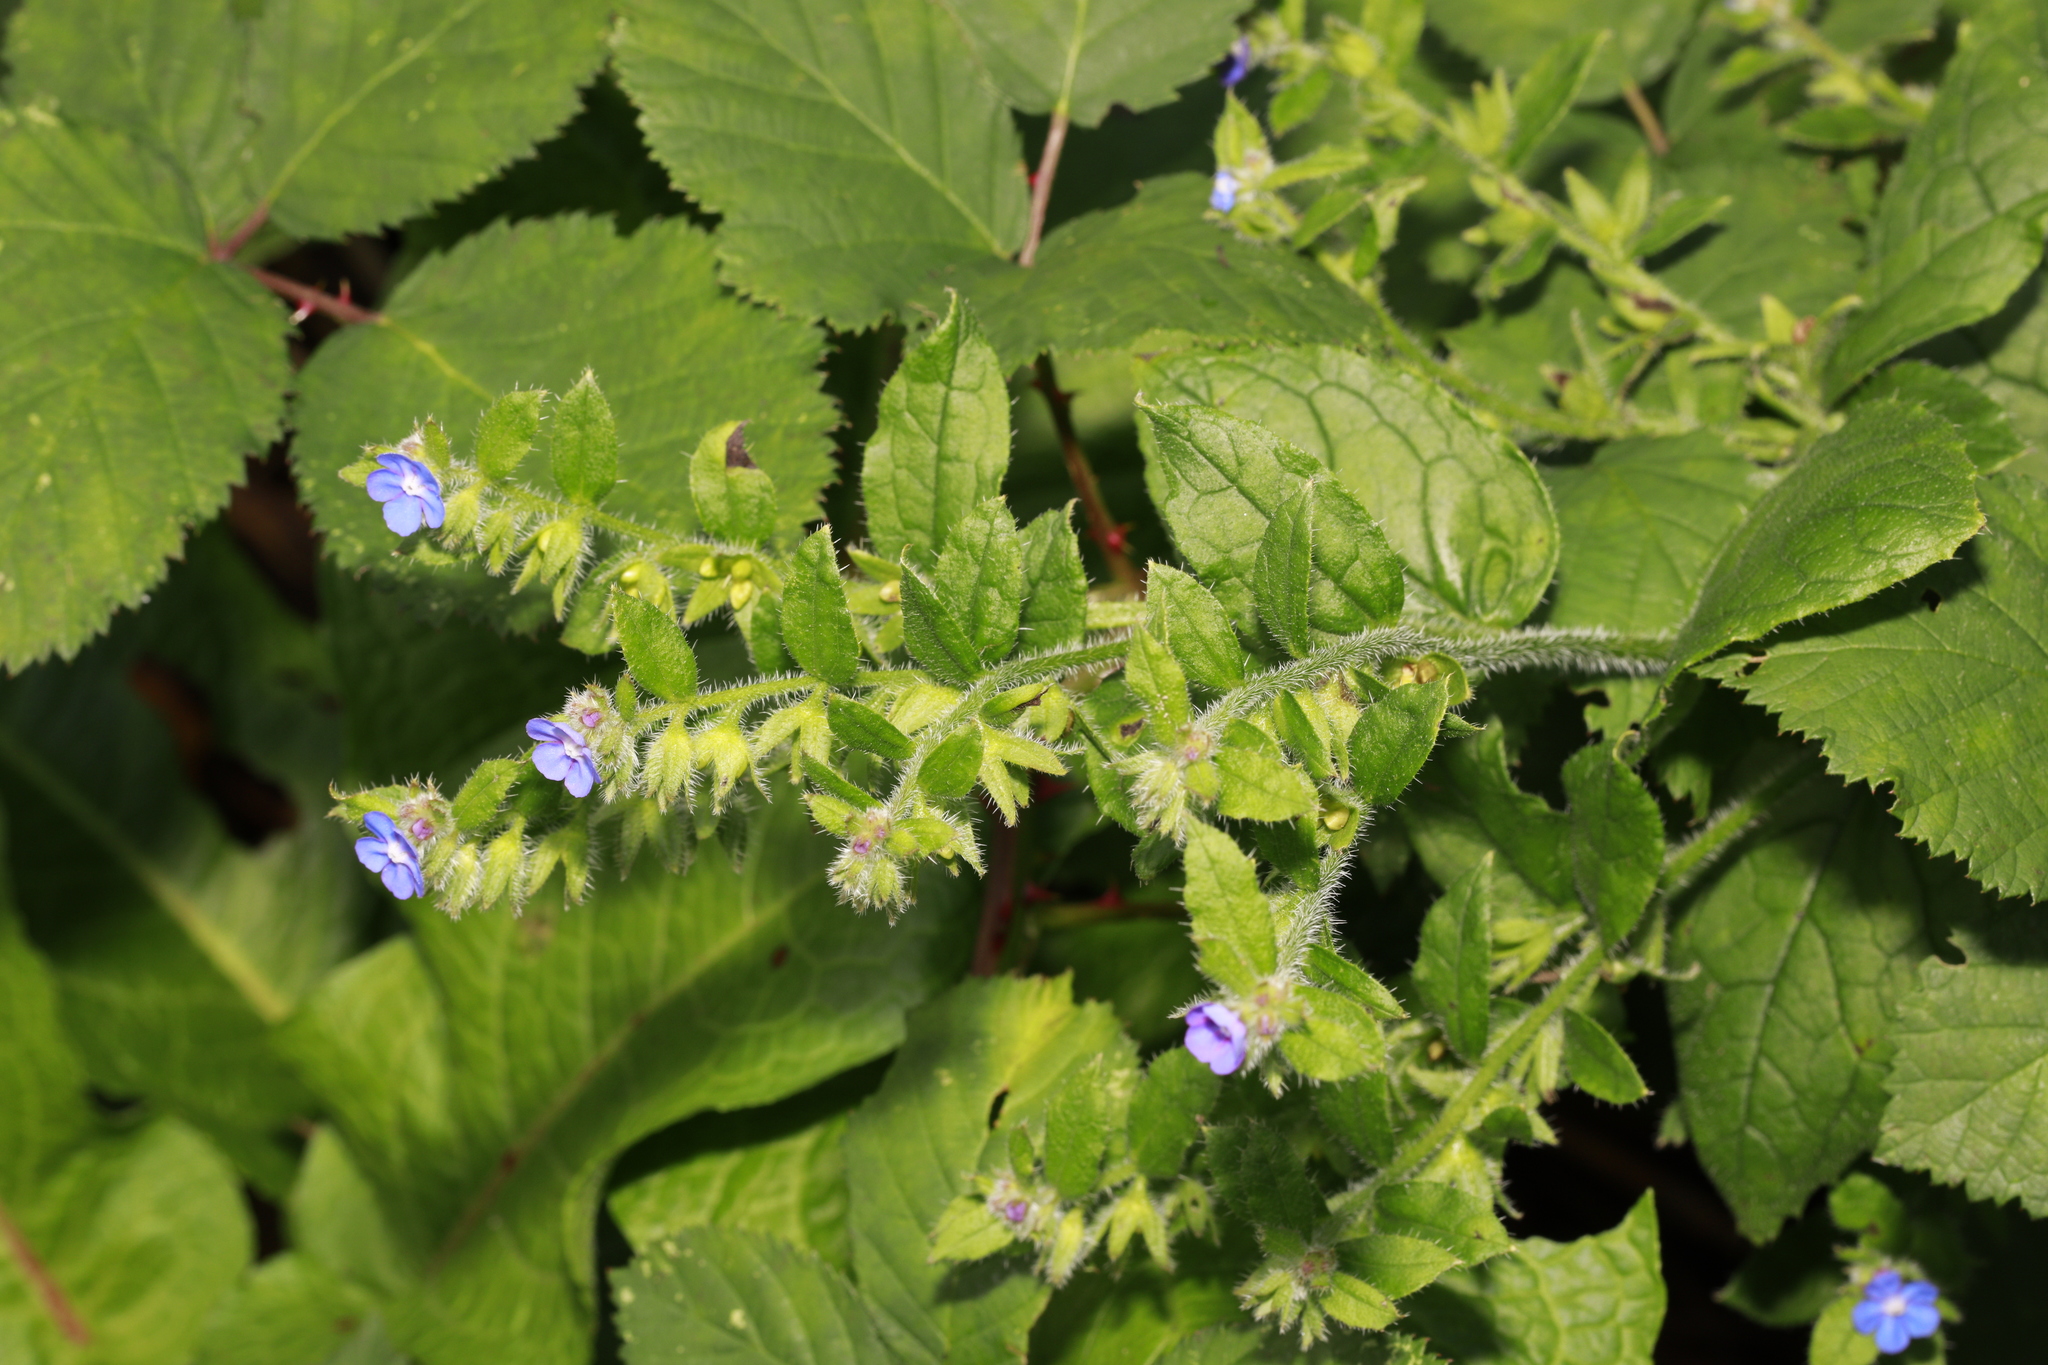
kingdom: Plantae
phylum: Tracheophyta
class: Magnoliopsida
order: Boraginales
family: Boraginaceae
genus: Pentaglottis
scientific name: Pentaglottis sempervirens
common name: Green alkanet
